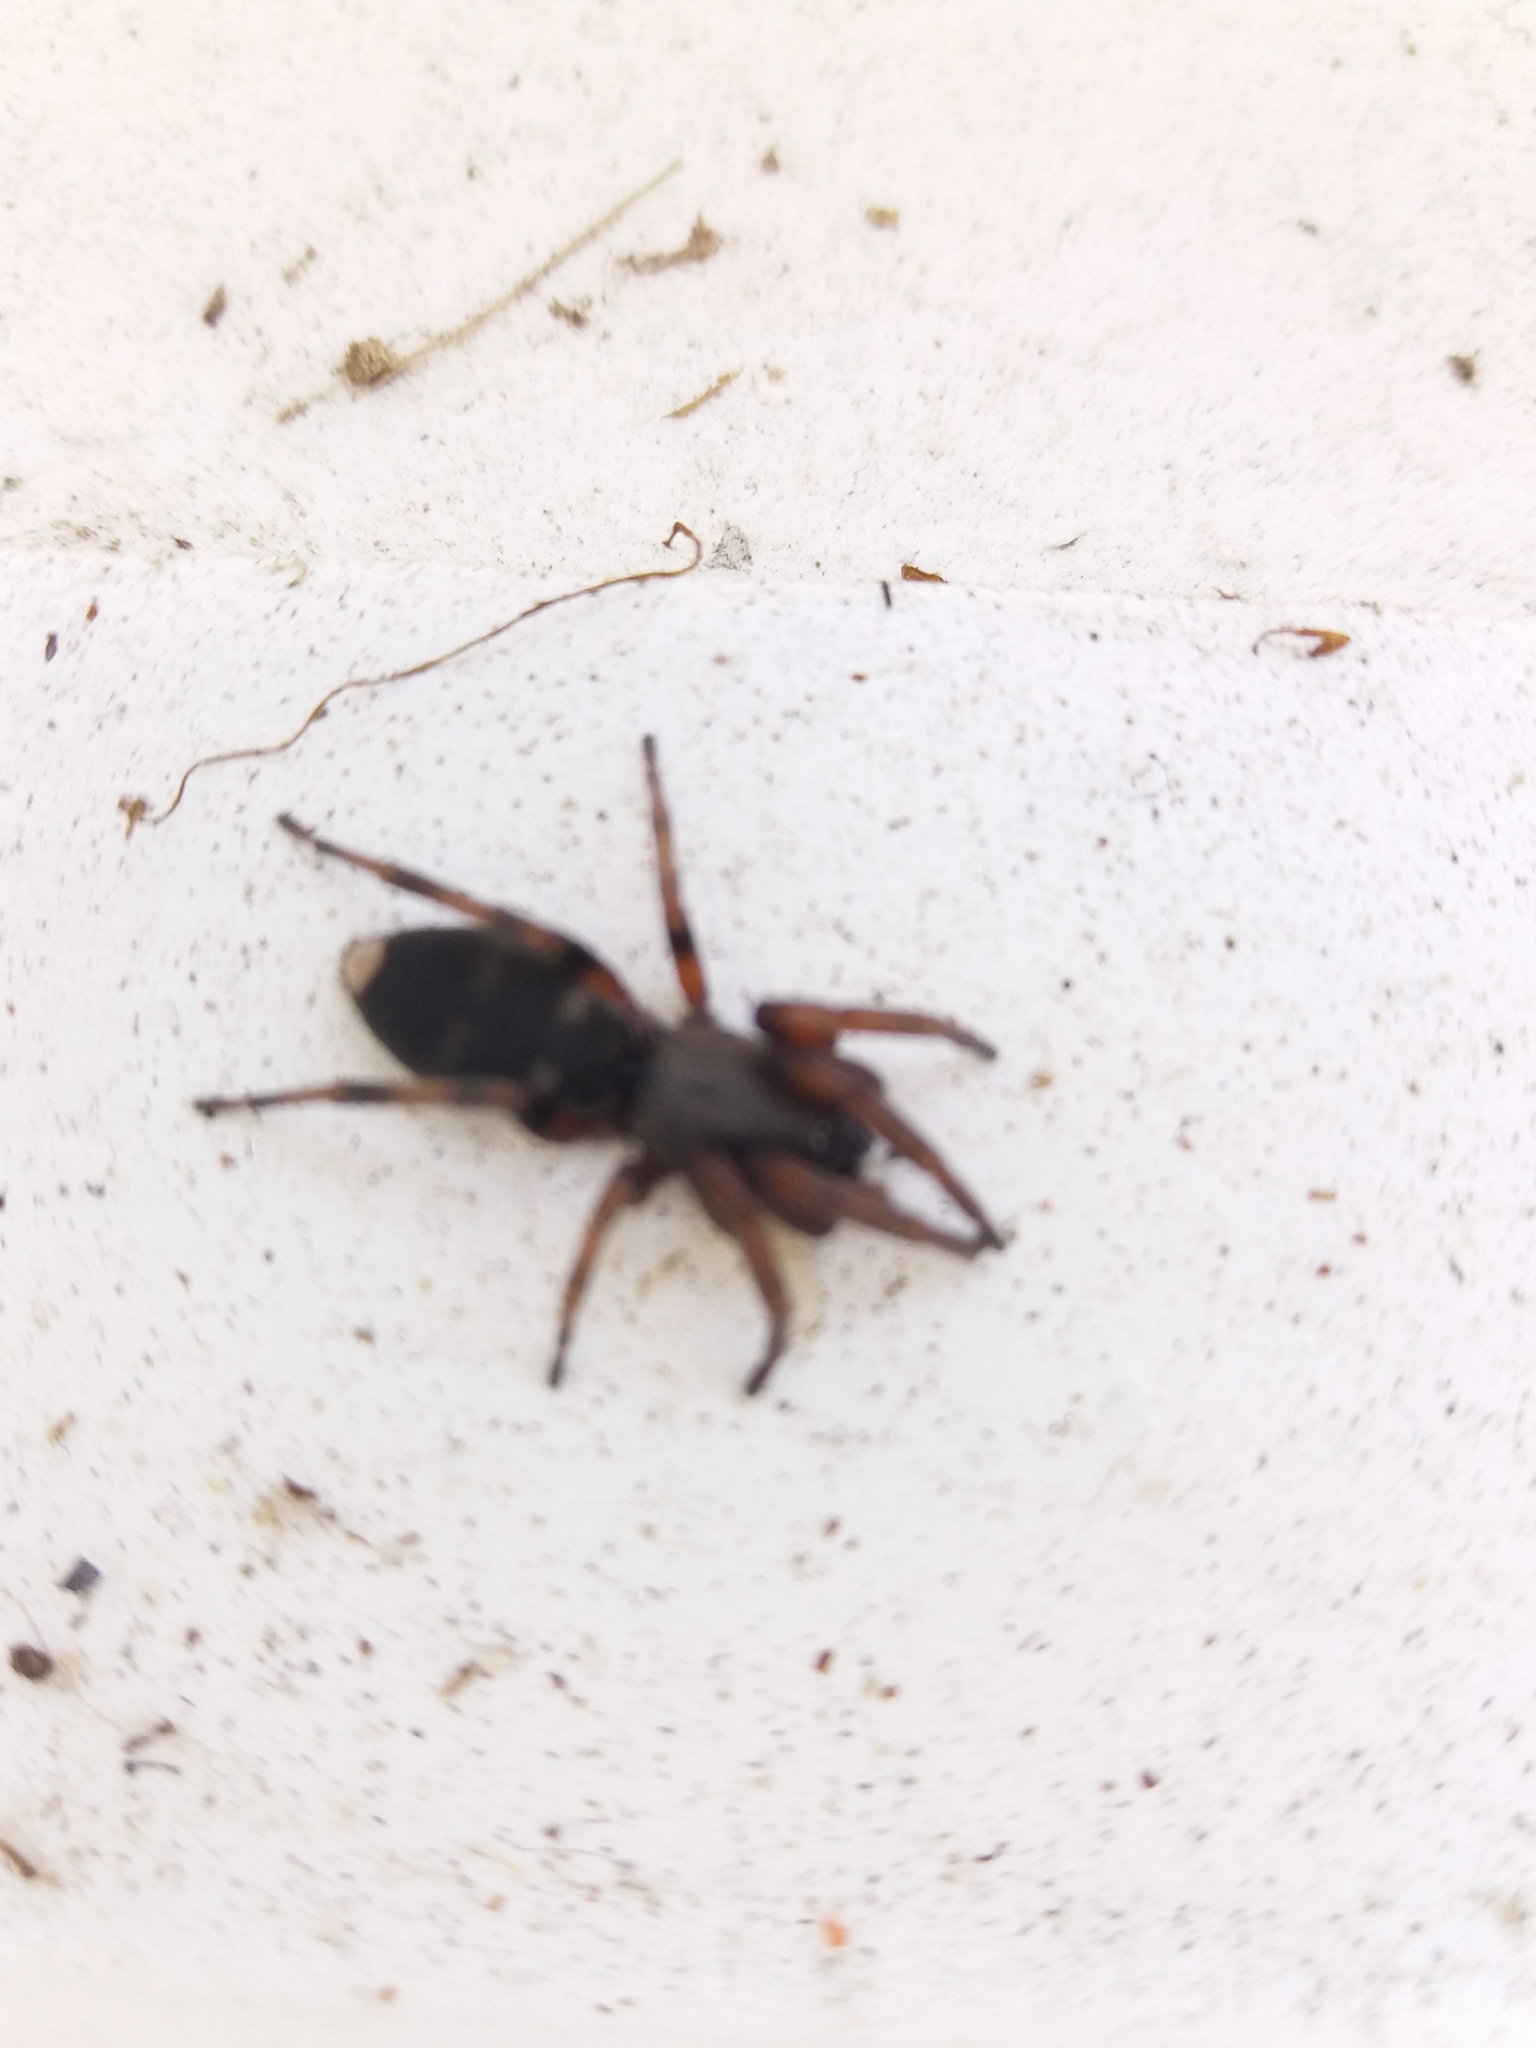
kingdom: Animalia
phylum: Arthropoda
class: Arachnida
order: Araneae
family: Lamponidae
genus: Lampona
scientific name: Lampona murina
